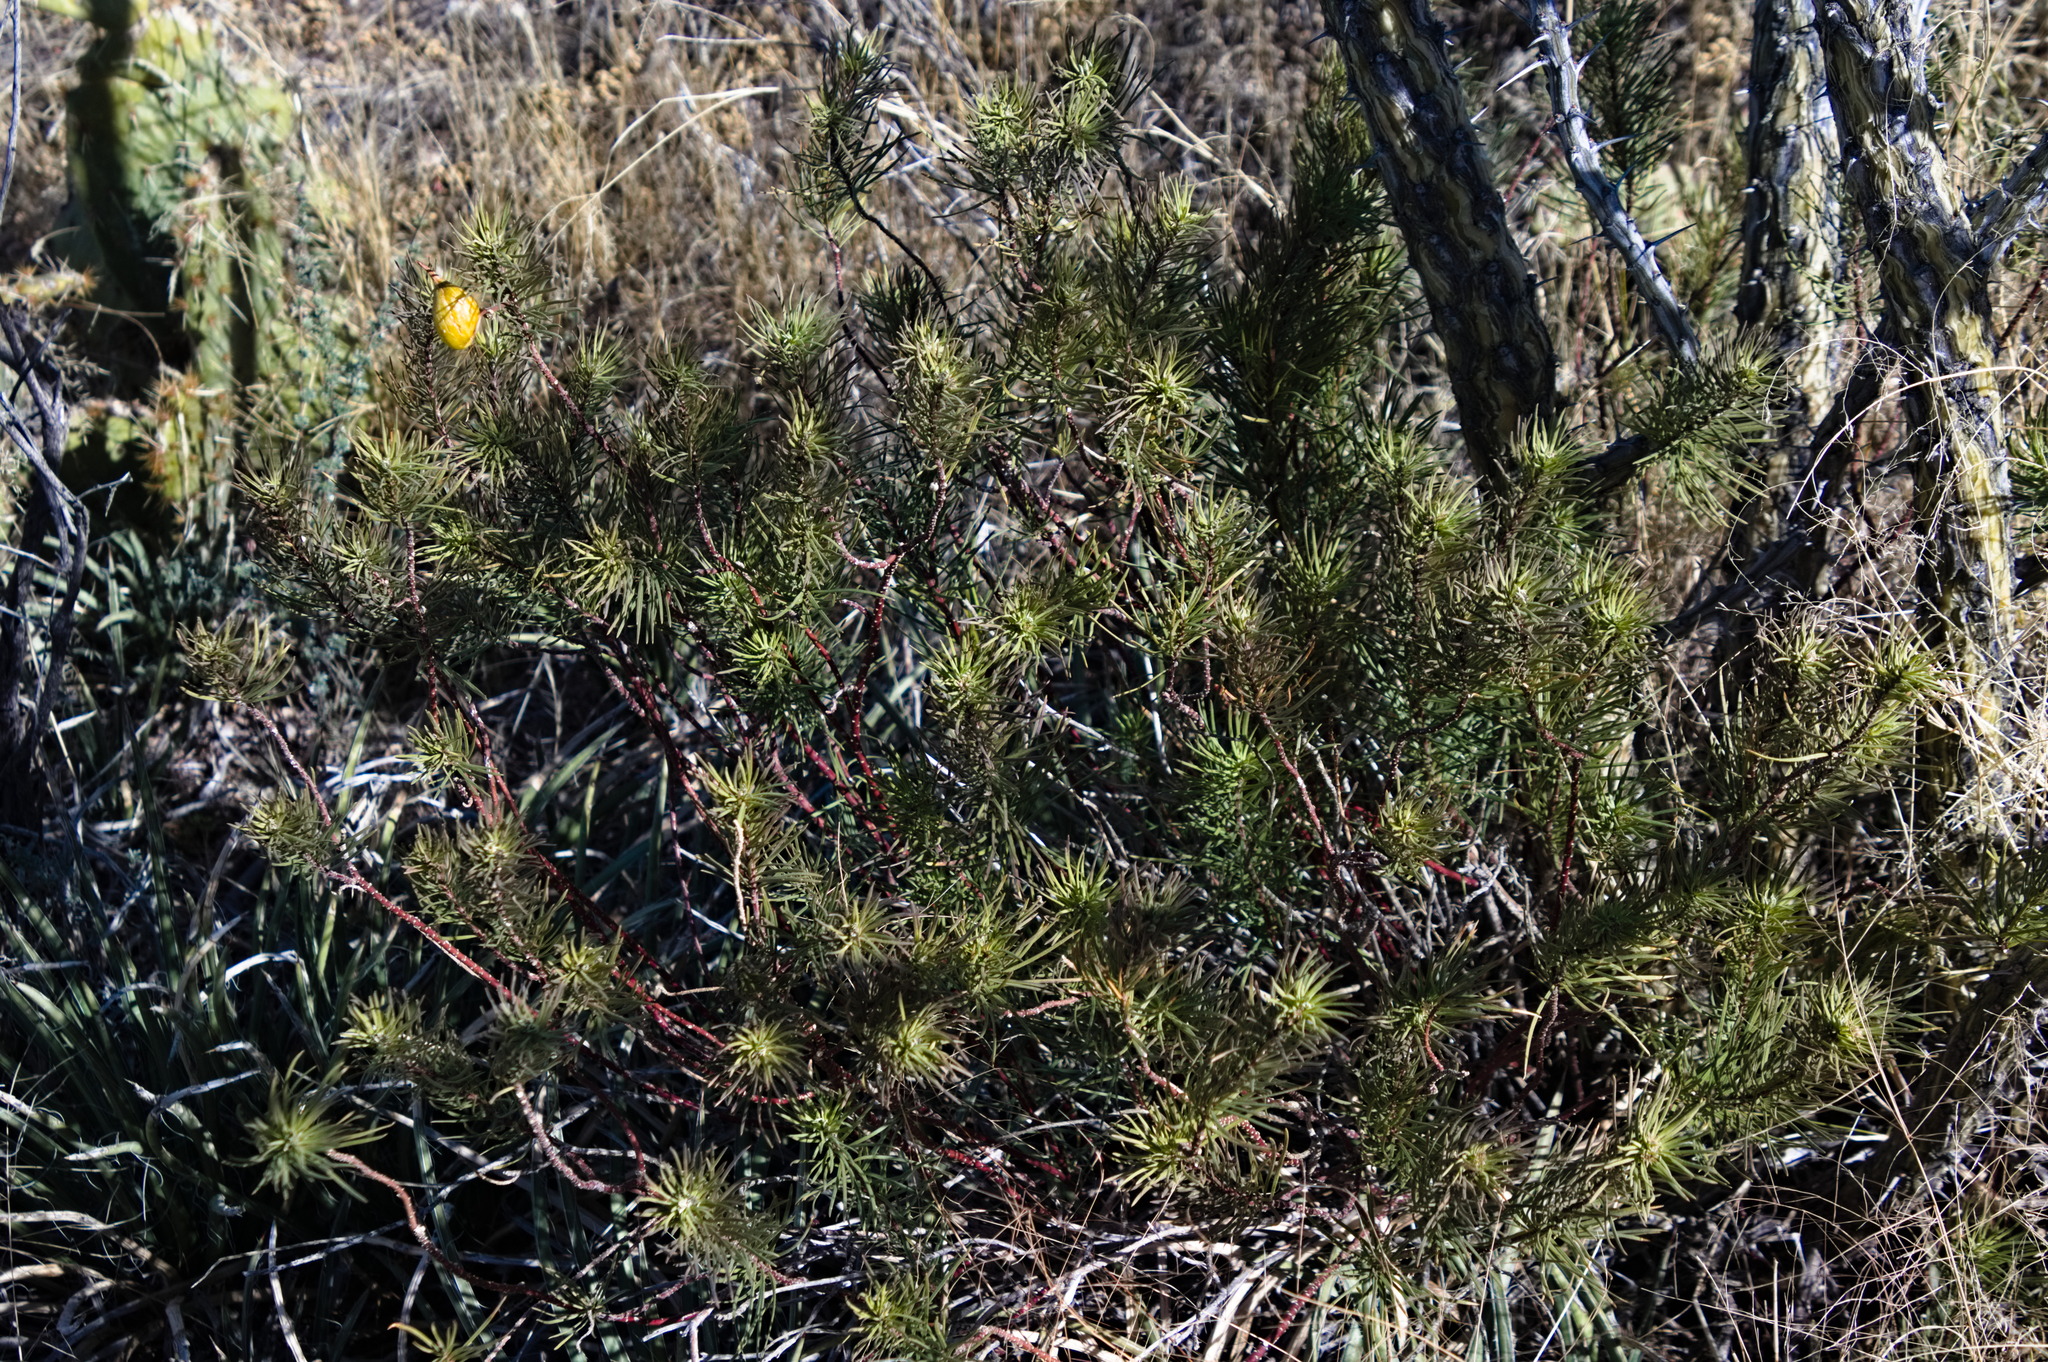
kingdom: Plantae
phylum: Tracheophyta
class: Magnoliopsida
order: Gentianales
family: Apocynaceae
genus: Asclepias
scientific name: Asclepias linaria
